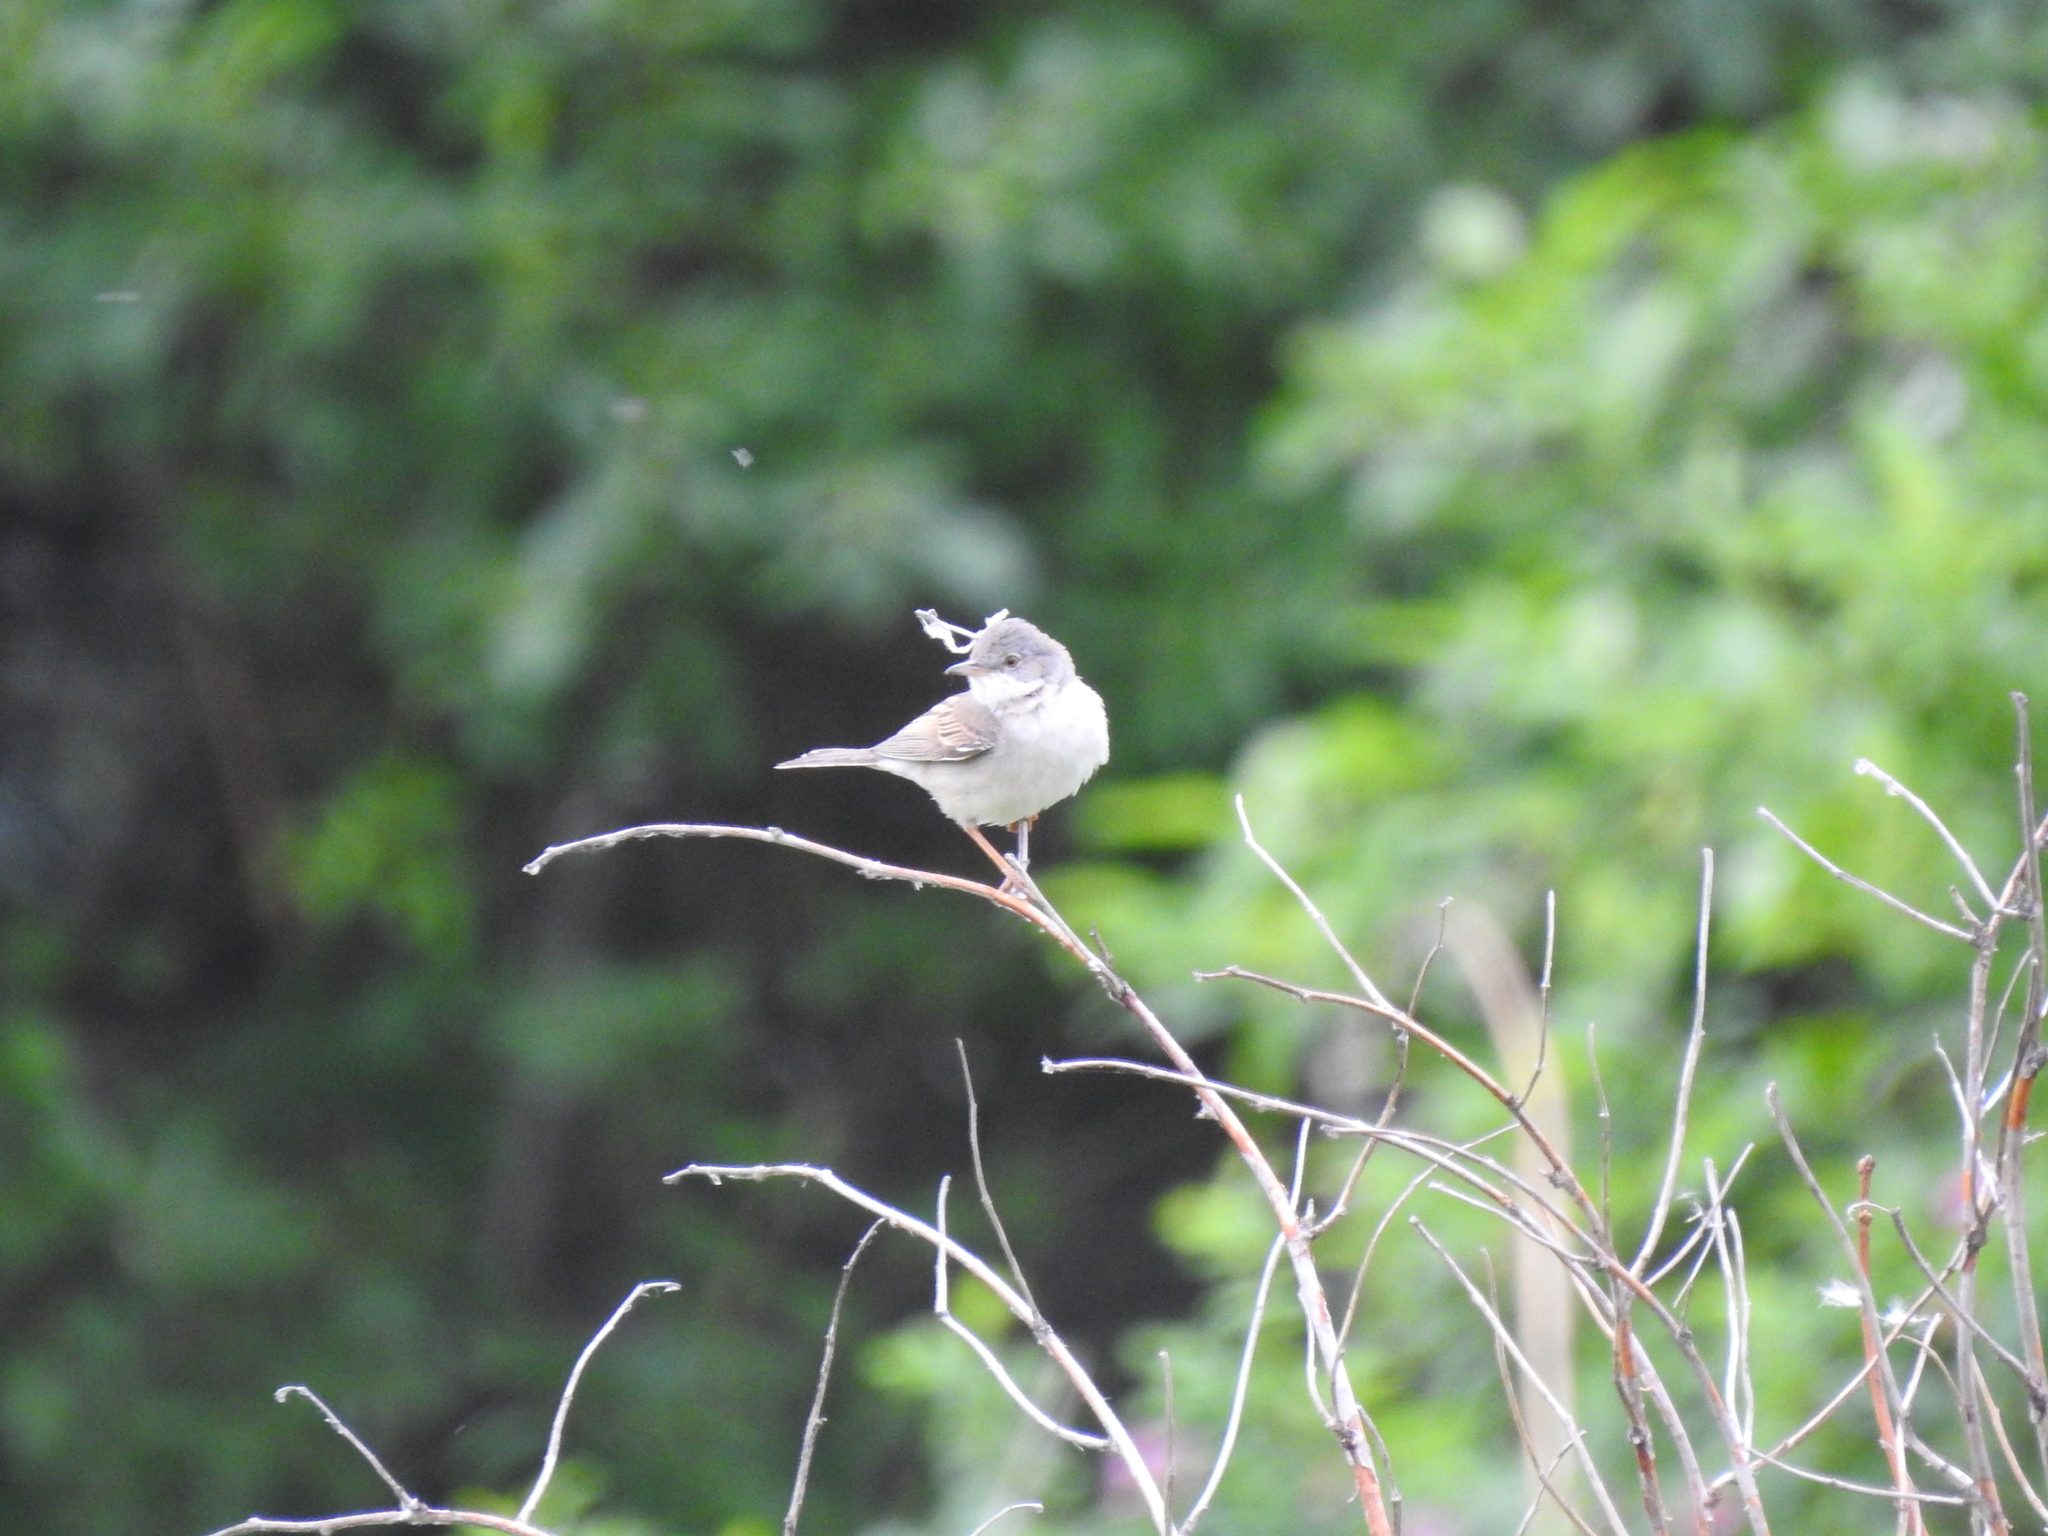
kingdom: Animalia
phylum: Chordata
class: Aves
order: Passeriformes
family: Sylviidae
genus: Sylvia
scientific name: Sylvia communis
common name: Common whitethroat
